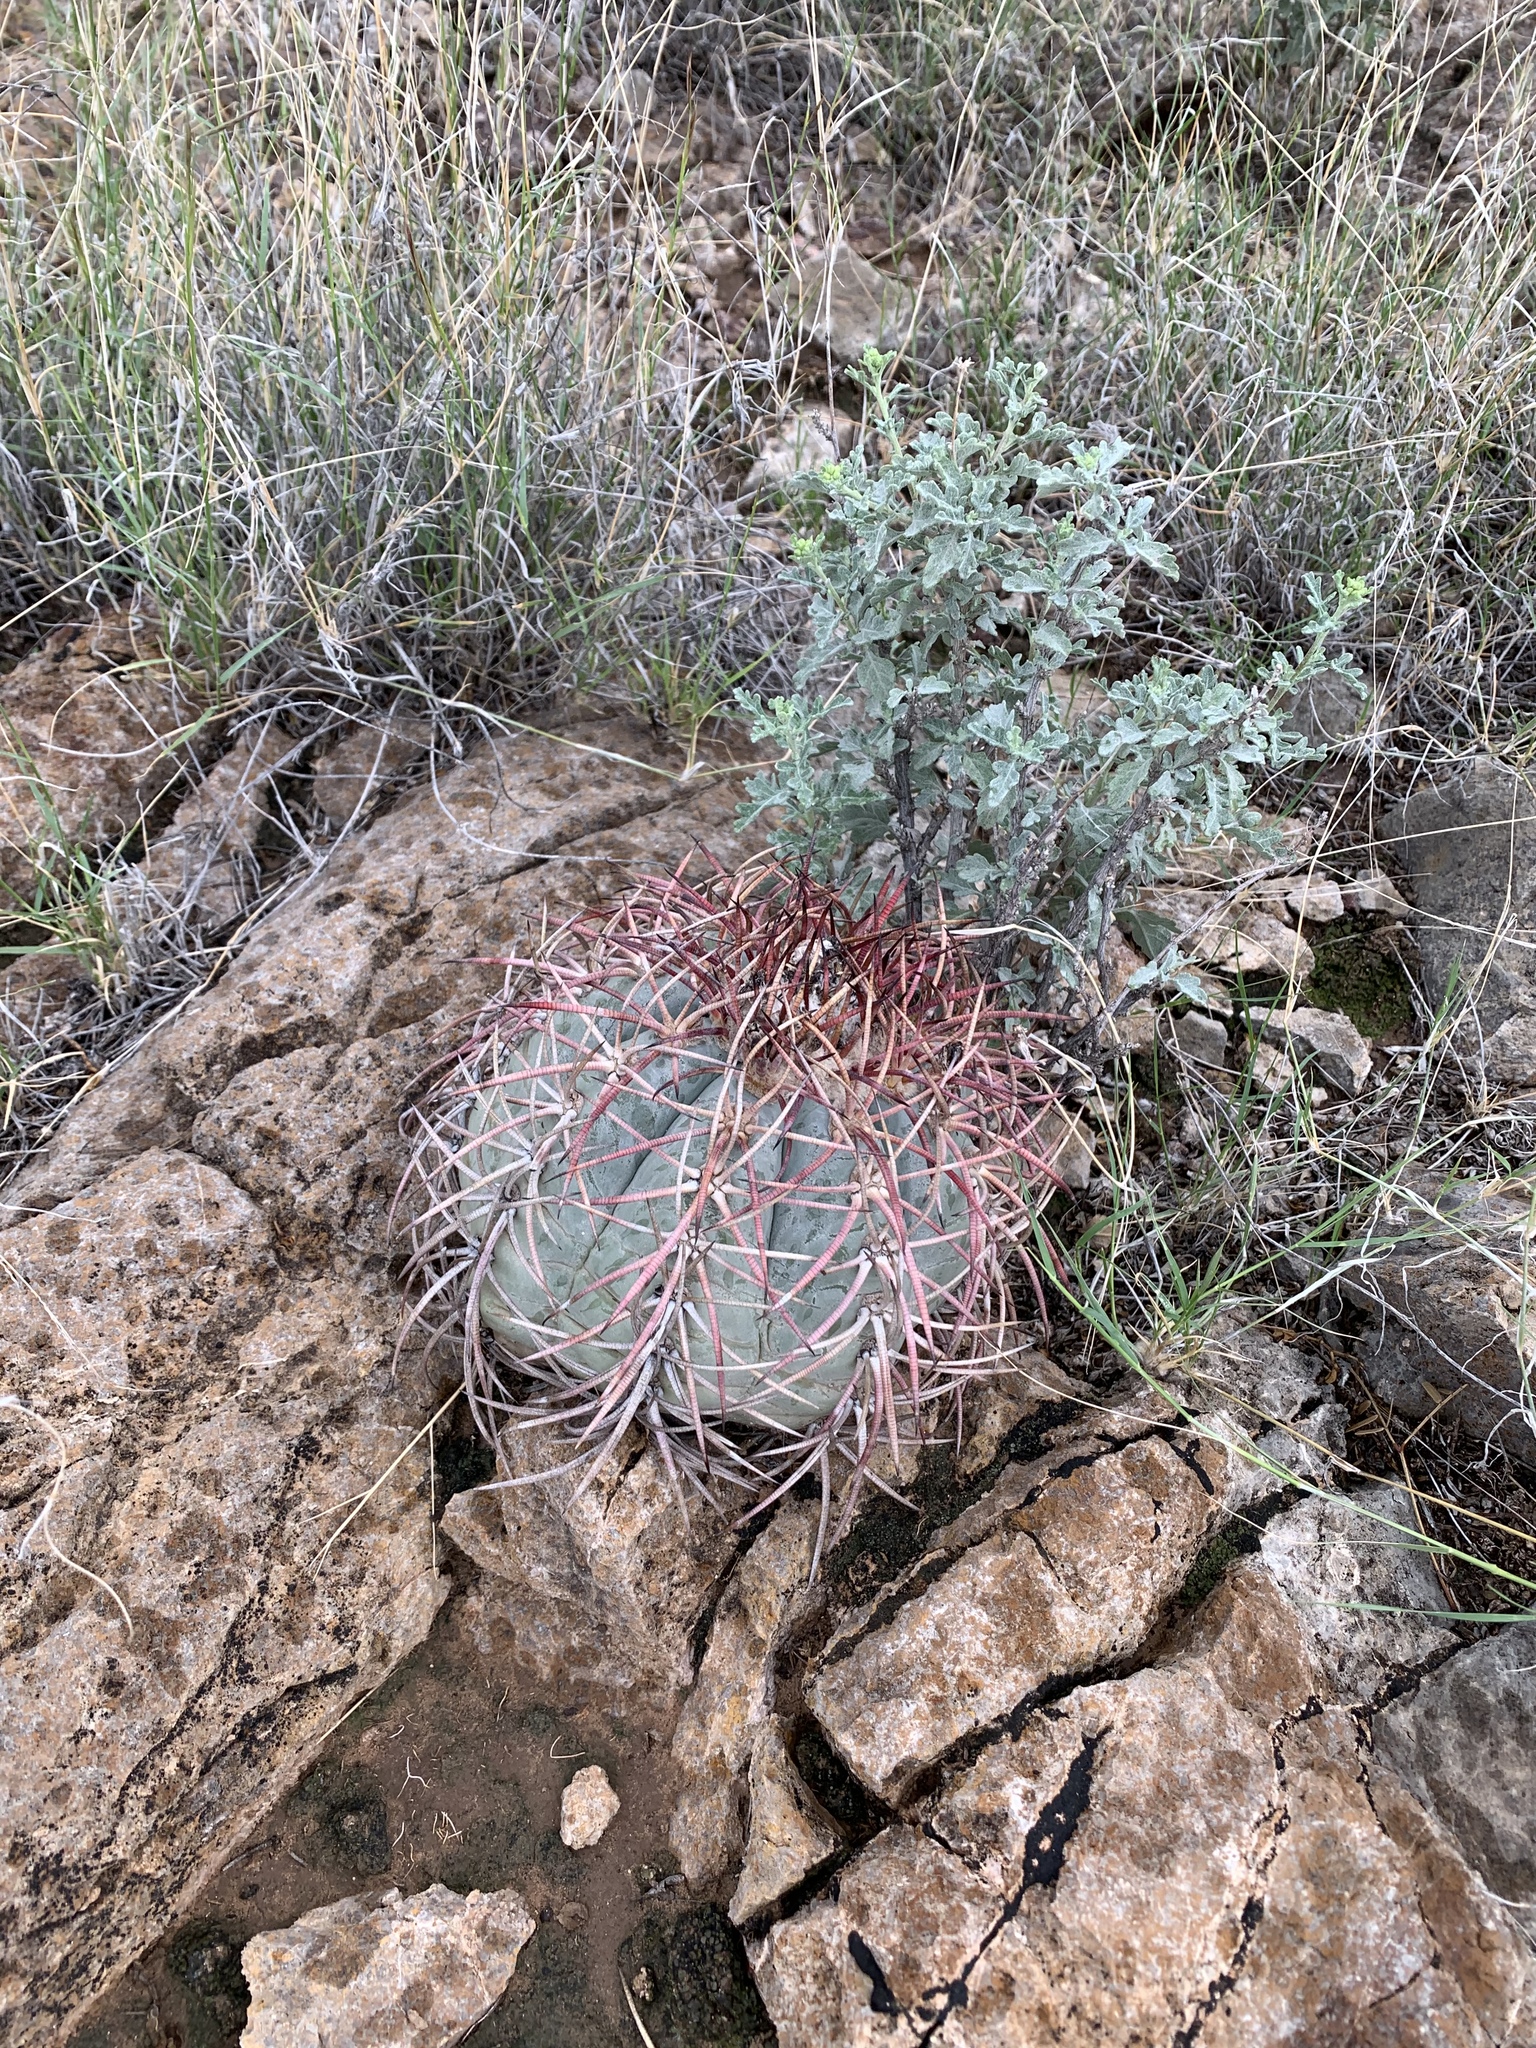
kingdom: Plantae
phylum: Tracheophyta
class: Magnoliopsida
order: Caryophyllales
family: Cactaceae
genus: Echinocactus
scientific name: Echinocactus horizonthalonius
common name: Devilshead
